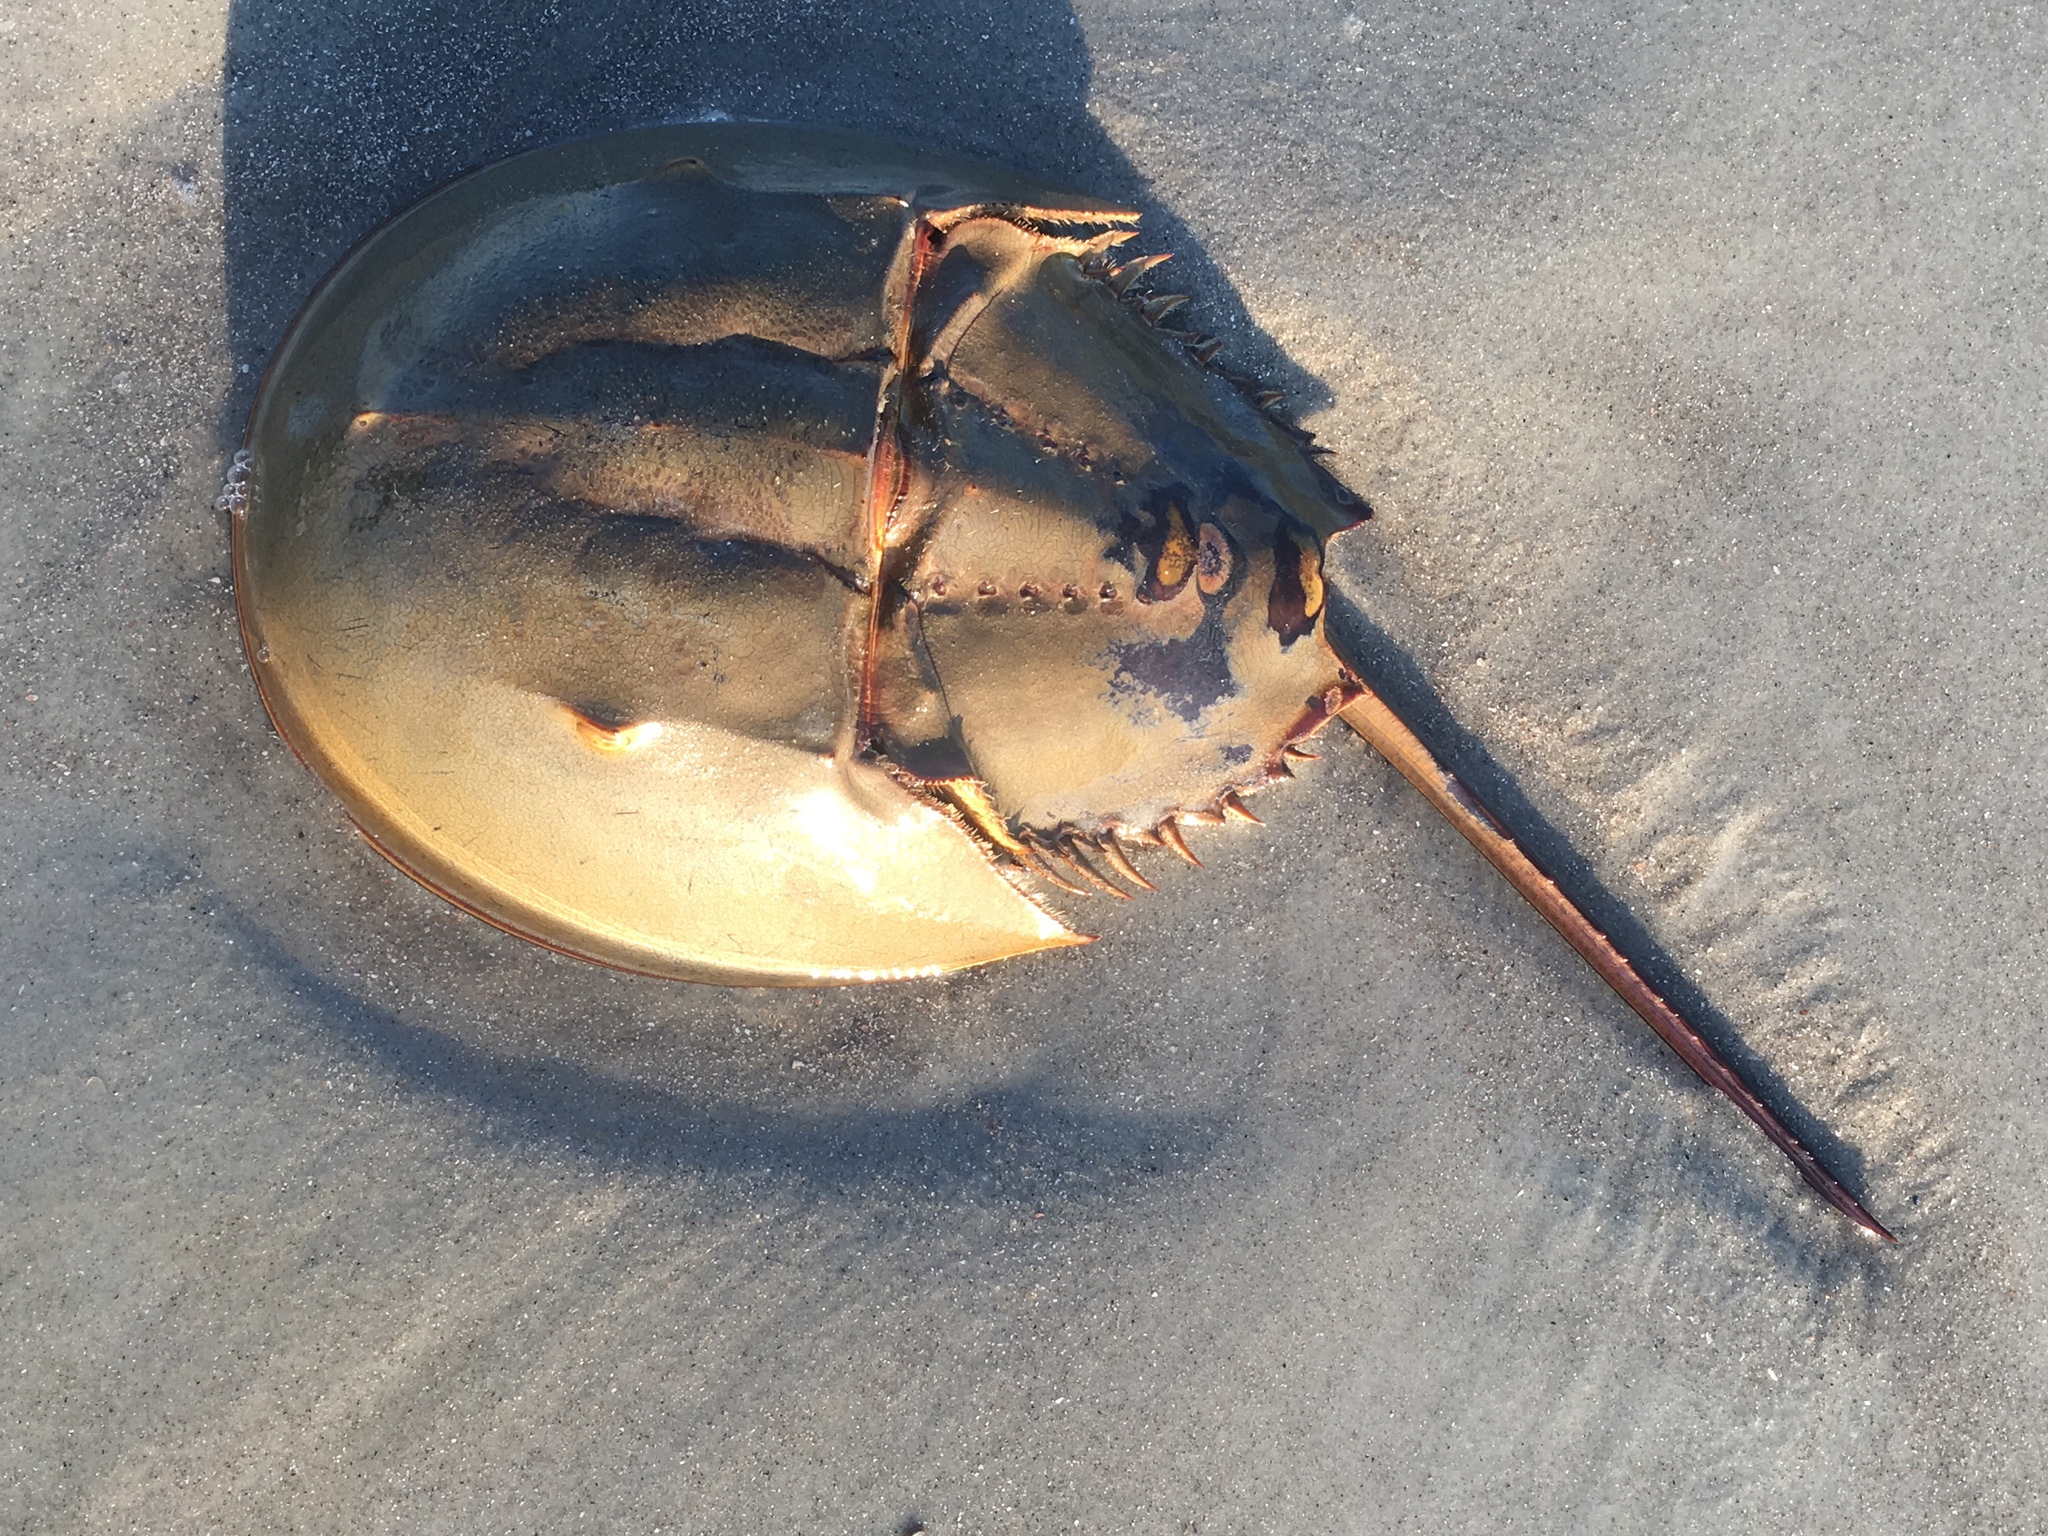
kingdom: Animalia
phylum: Arthropoda
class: Merostomata
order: Xiphosurida
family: Limulidae
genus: Limulus
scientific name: Limulus polyphemus
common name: Horseshoe crab
